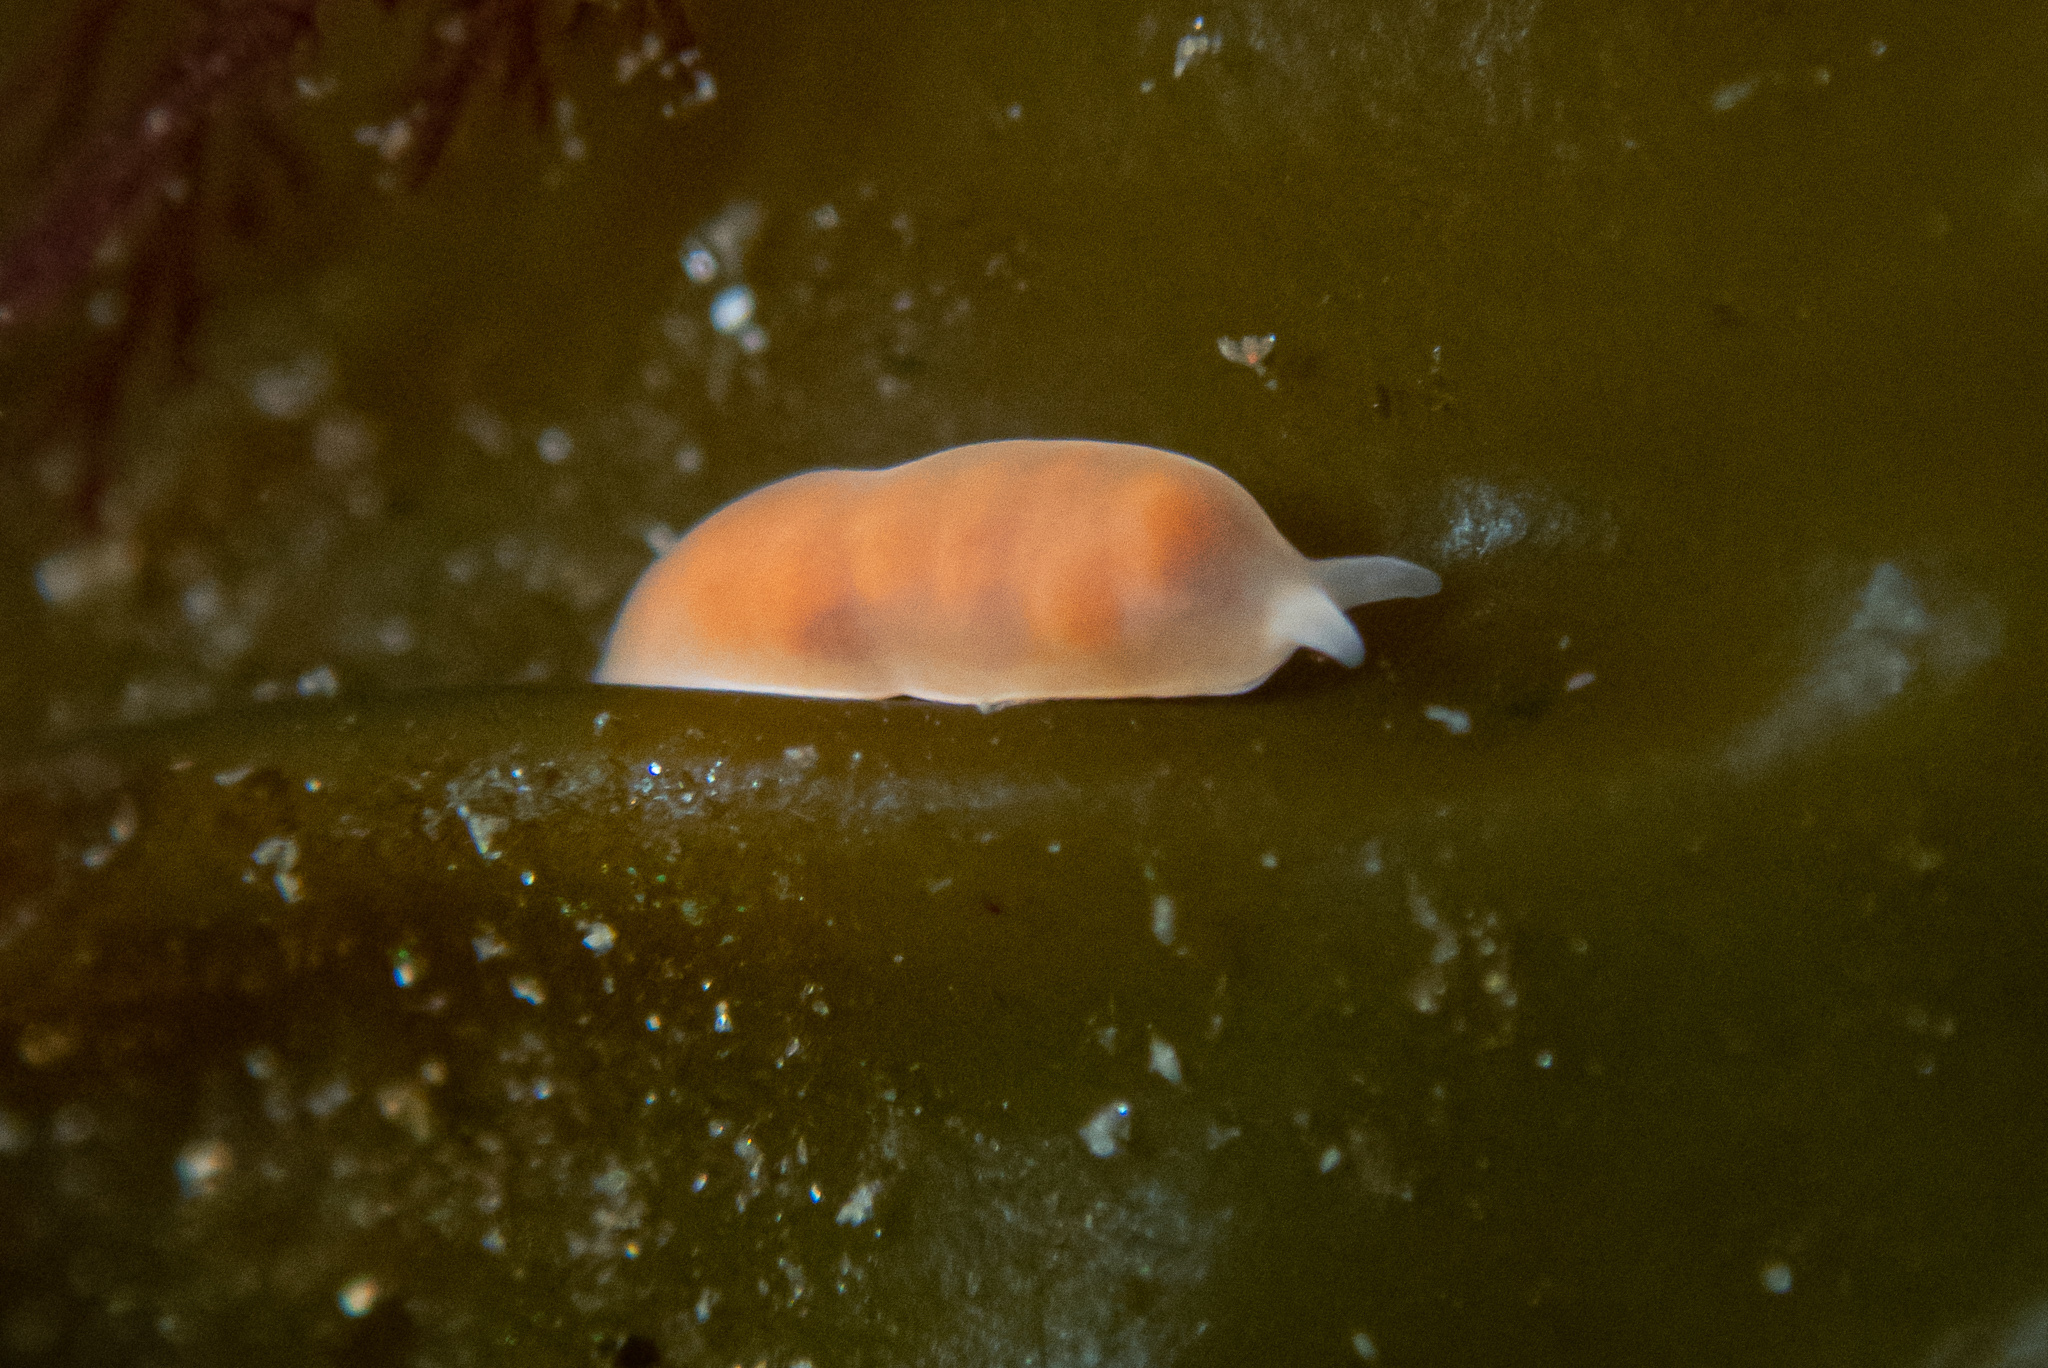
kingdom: Animalia
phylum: Platyhelminthes
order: Prolecithophora
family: Plagiostomidae
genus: Vorticeros
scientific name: Vorticeros praedatorium
